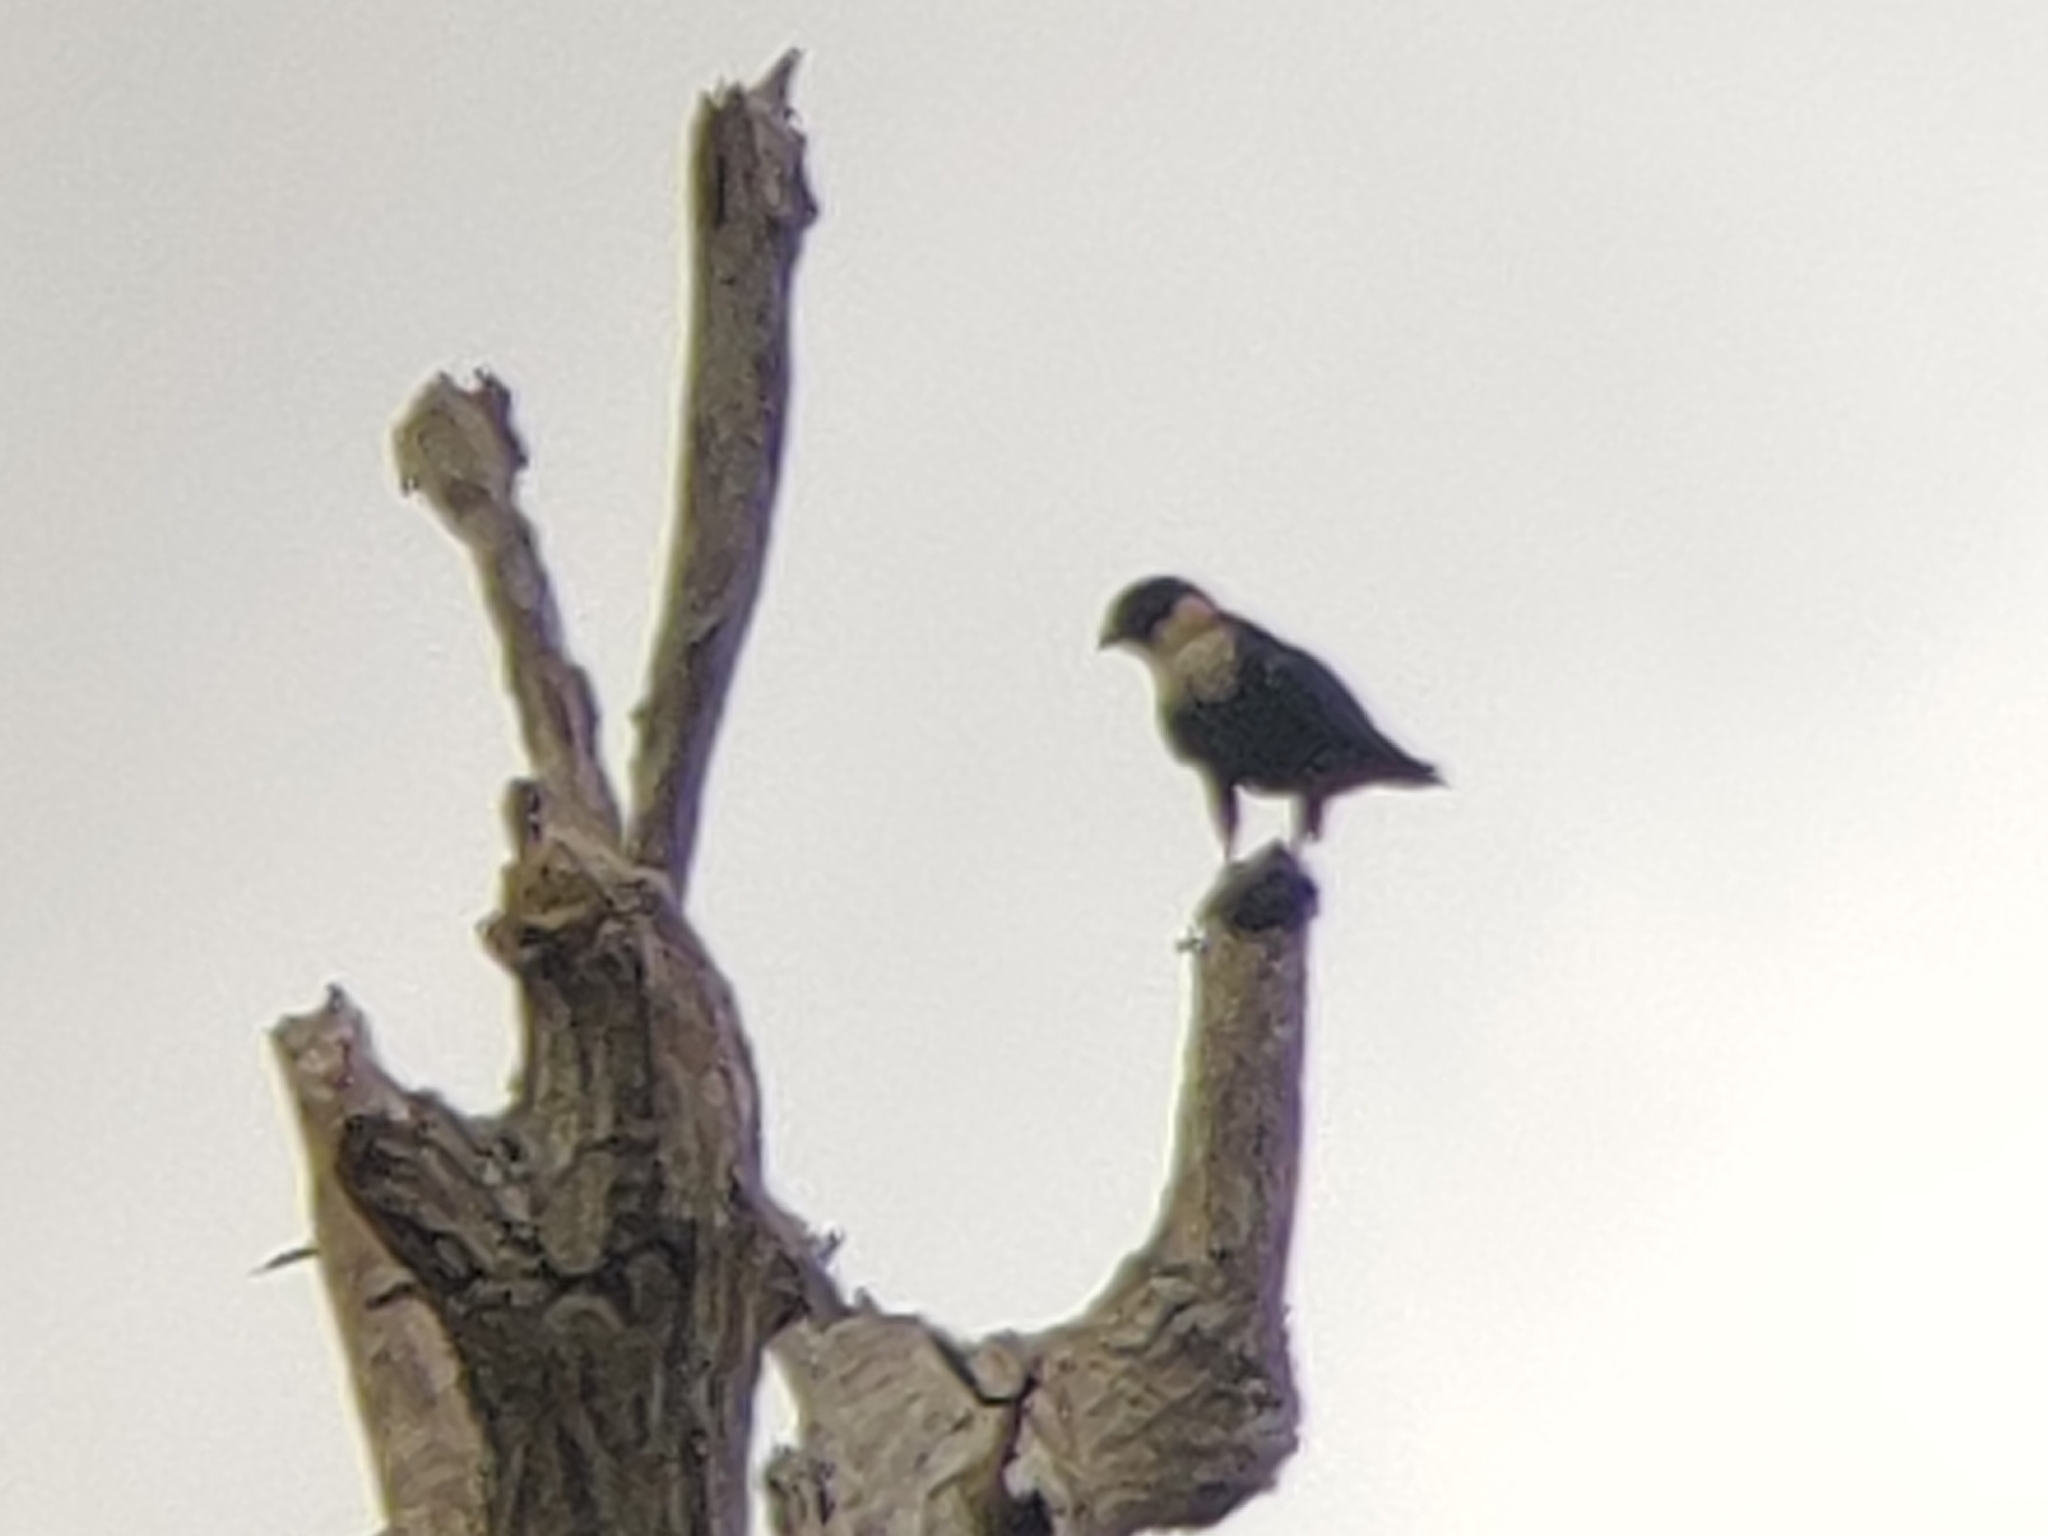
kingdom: Animalia
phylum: Chordata
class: Aves
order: Falconiformes
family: Falconidae
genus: Falco
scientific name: Falco rufigularis
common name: Bat falcon
